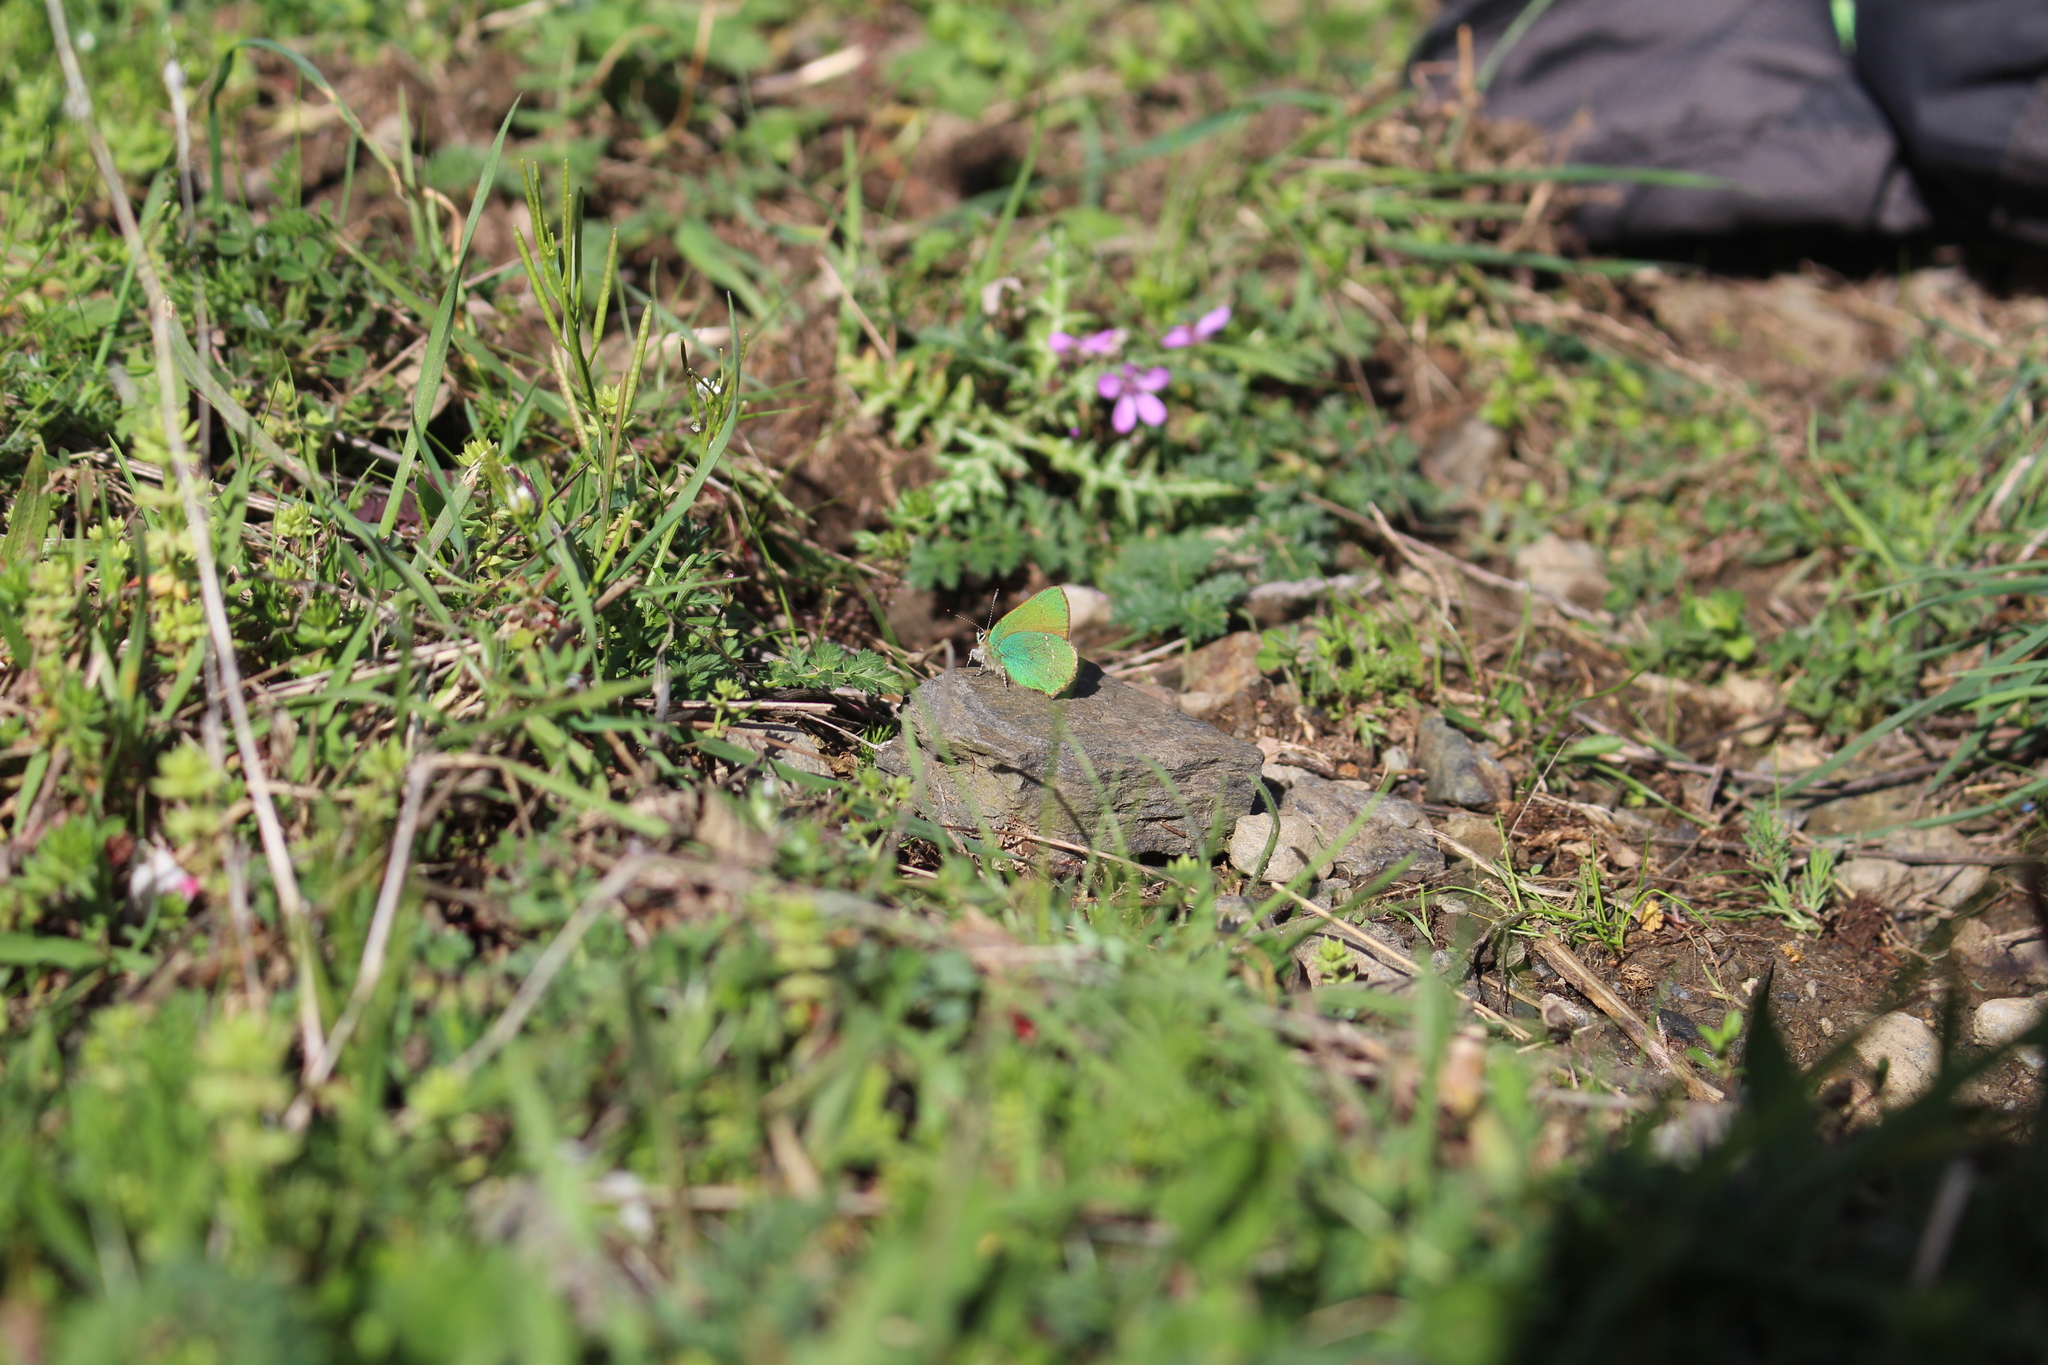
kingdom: Animalia
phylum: Arthropoda
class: Insecta
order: Lepidoptera
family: Lycaenidae
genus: Callophrys
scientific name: Callophrys rubi
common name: Green hairstreak
